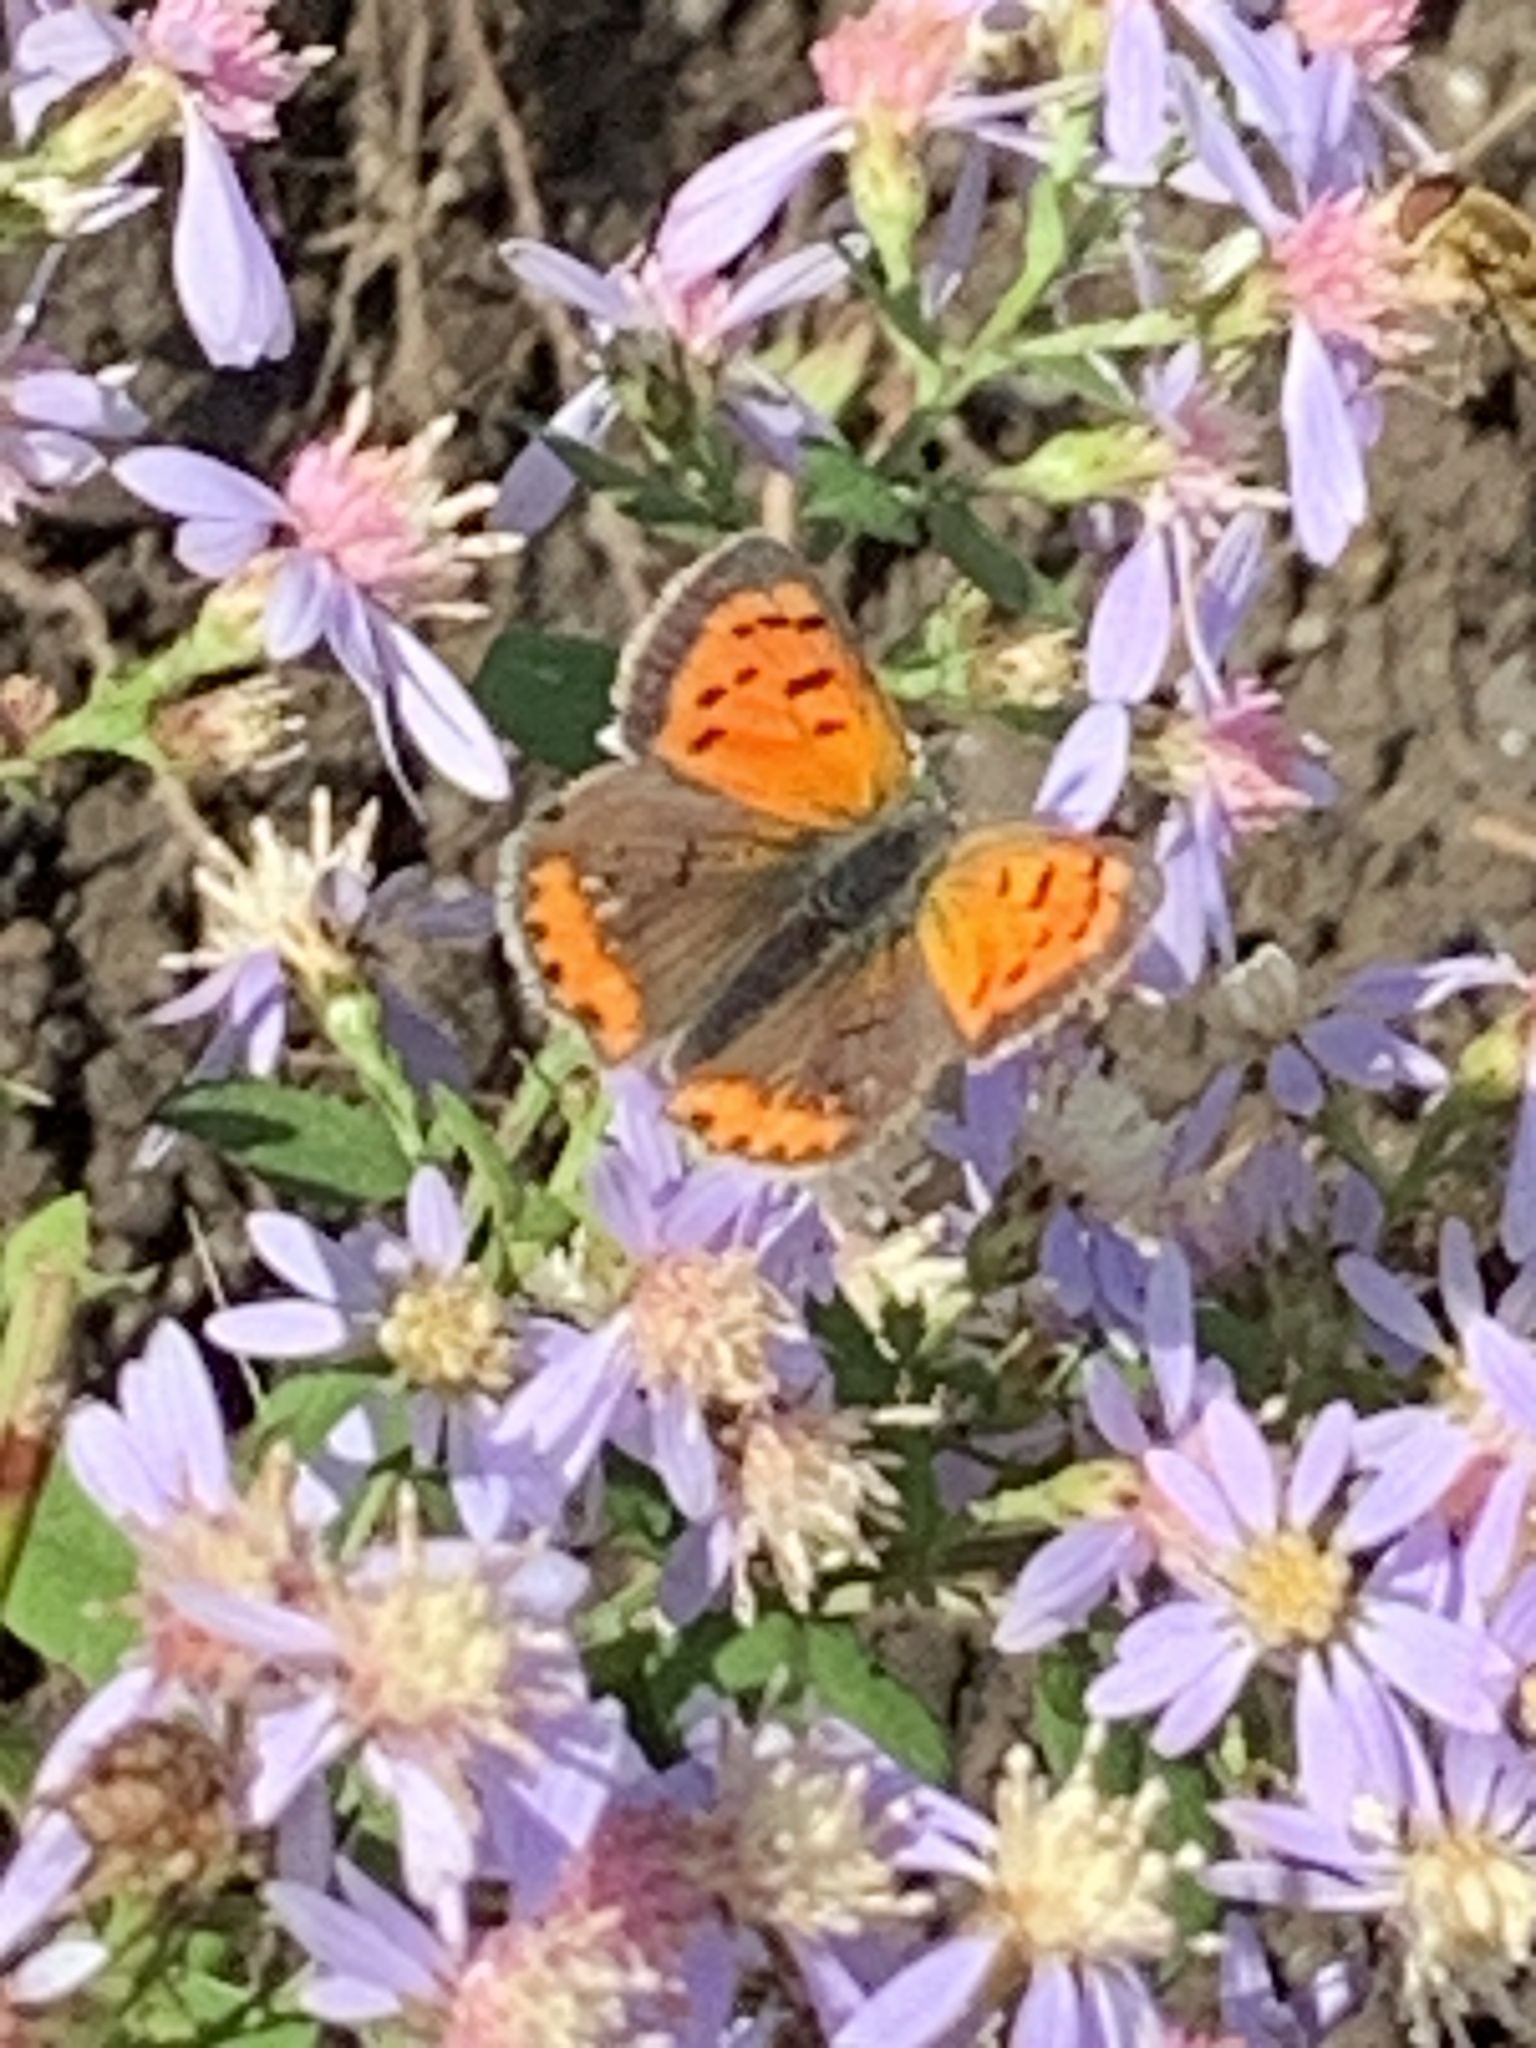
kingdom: Animalia
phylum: Arthropoda
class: Insecta
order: Lepidoptera
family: Lycaenidae
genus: Lycaena
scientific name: Lycaena hypophlaeas
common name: American copper
